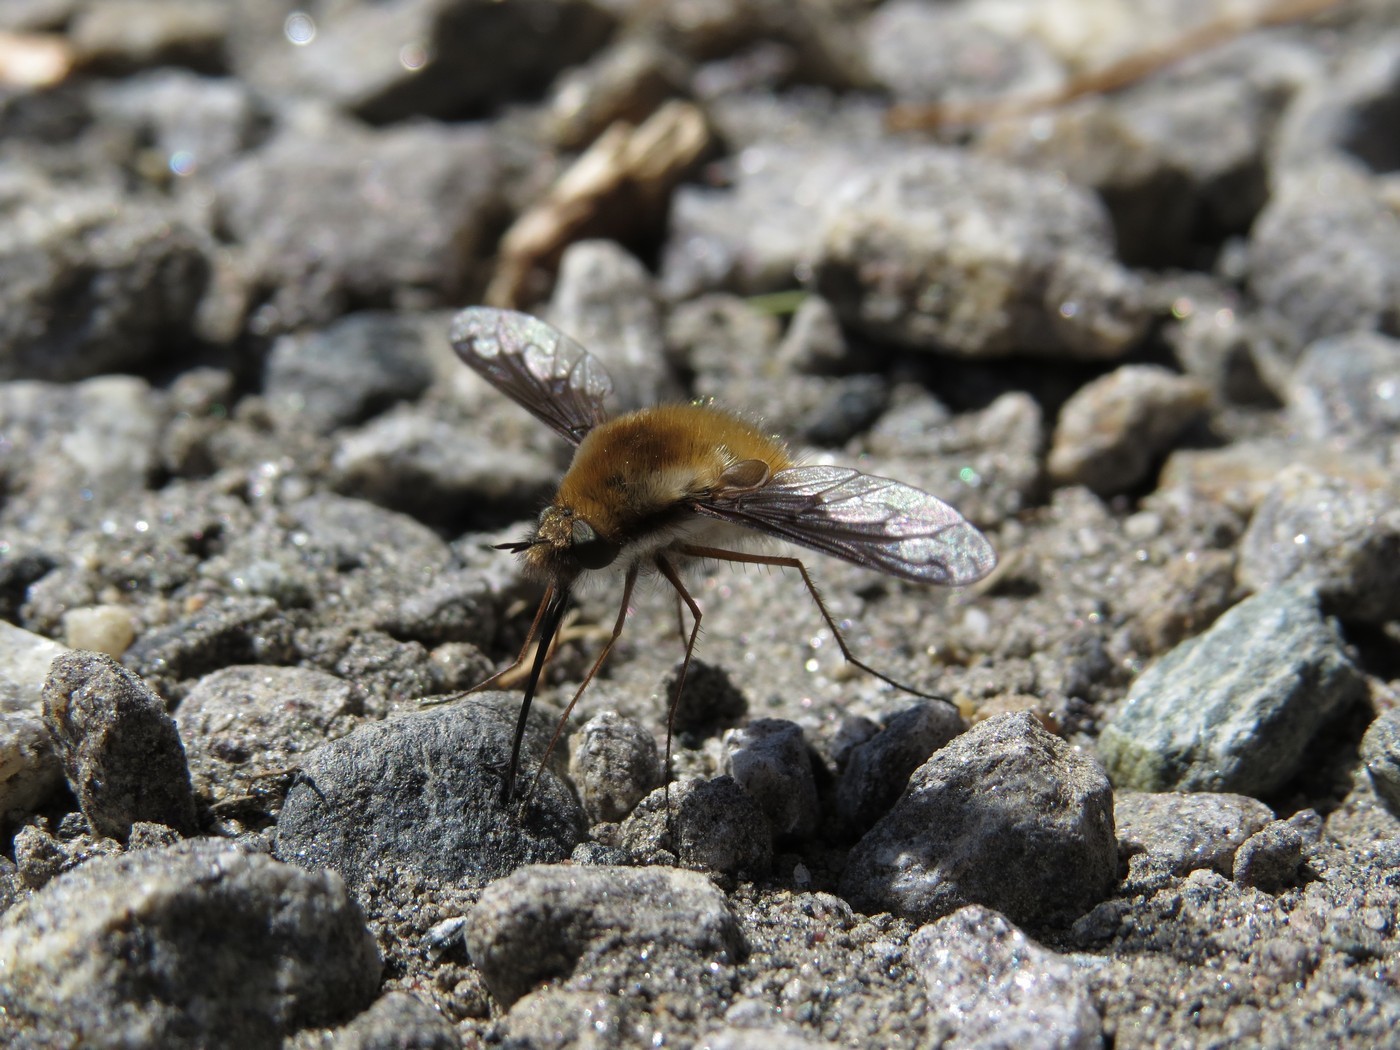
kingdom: Animalia
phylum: Arthropoda
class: Insecta
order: Diptera
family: Bombyliidae
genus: Bombylius
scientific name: Bombylius major
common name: Bee fly
